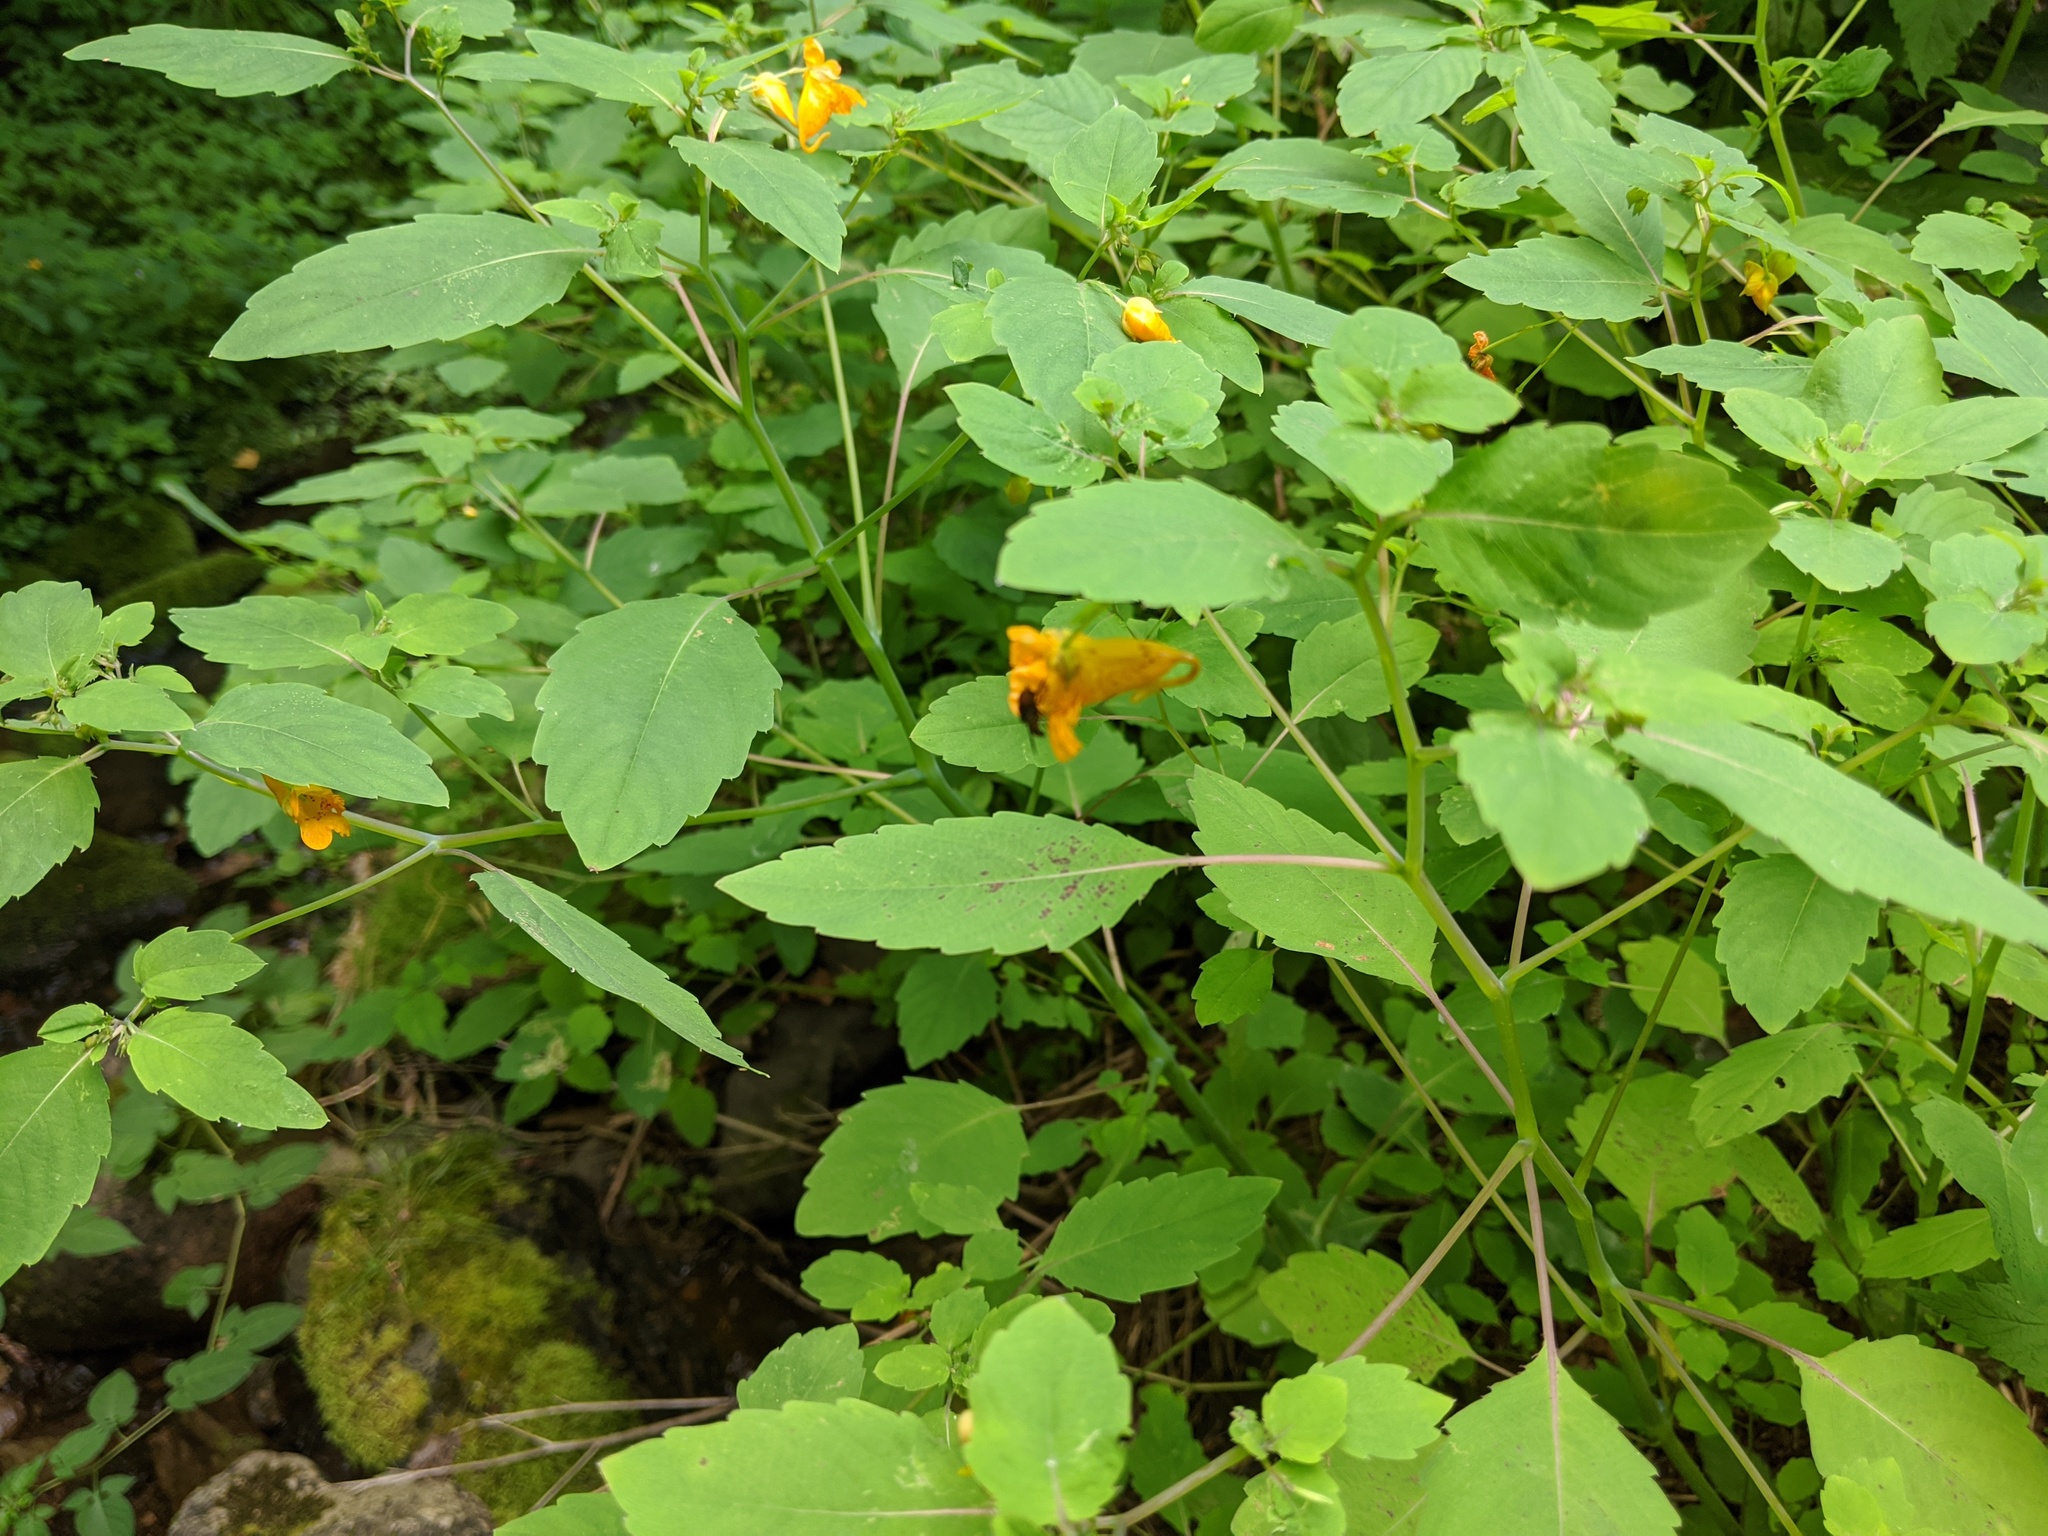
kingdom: Plantae
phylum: Tracheophyta
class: Magnoliopsida
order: Ericales
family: Balsaminaceae
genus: Impatiens
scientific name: Impatiens capensis
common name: Orange balsam
